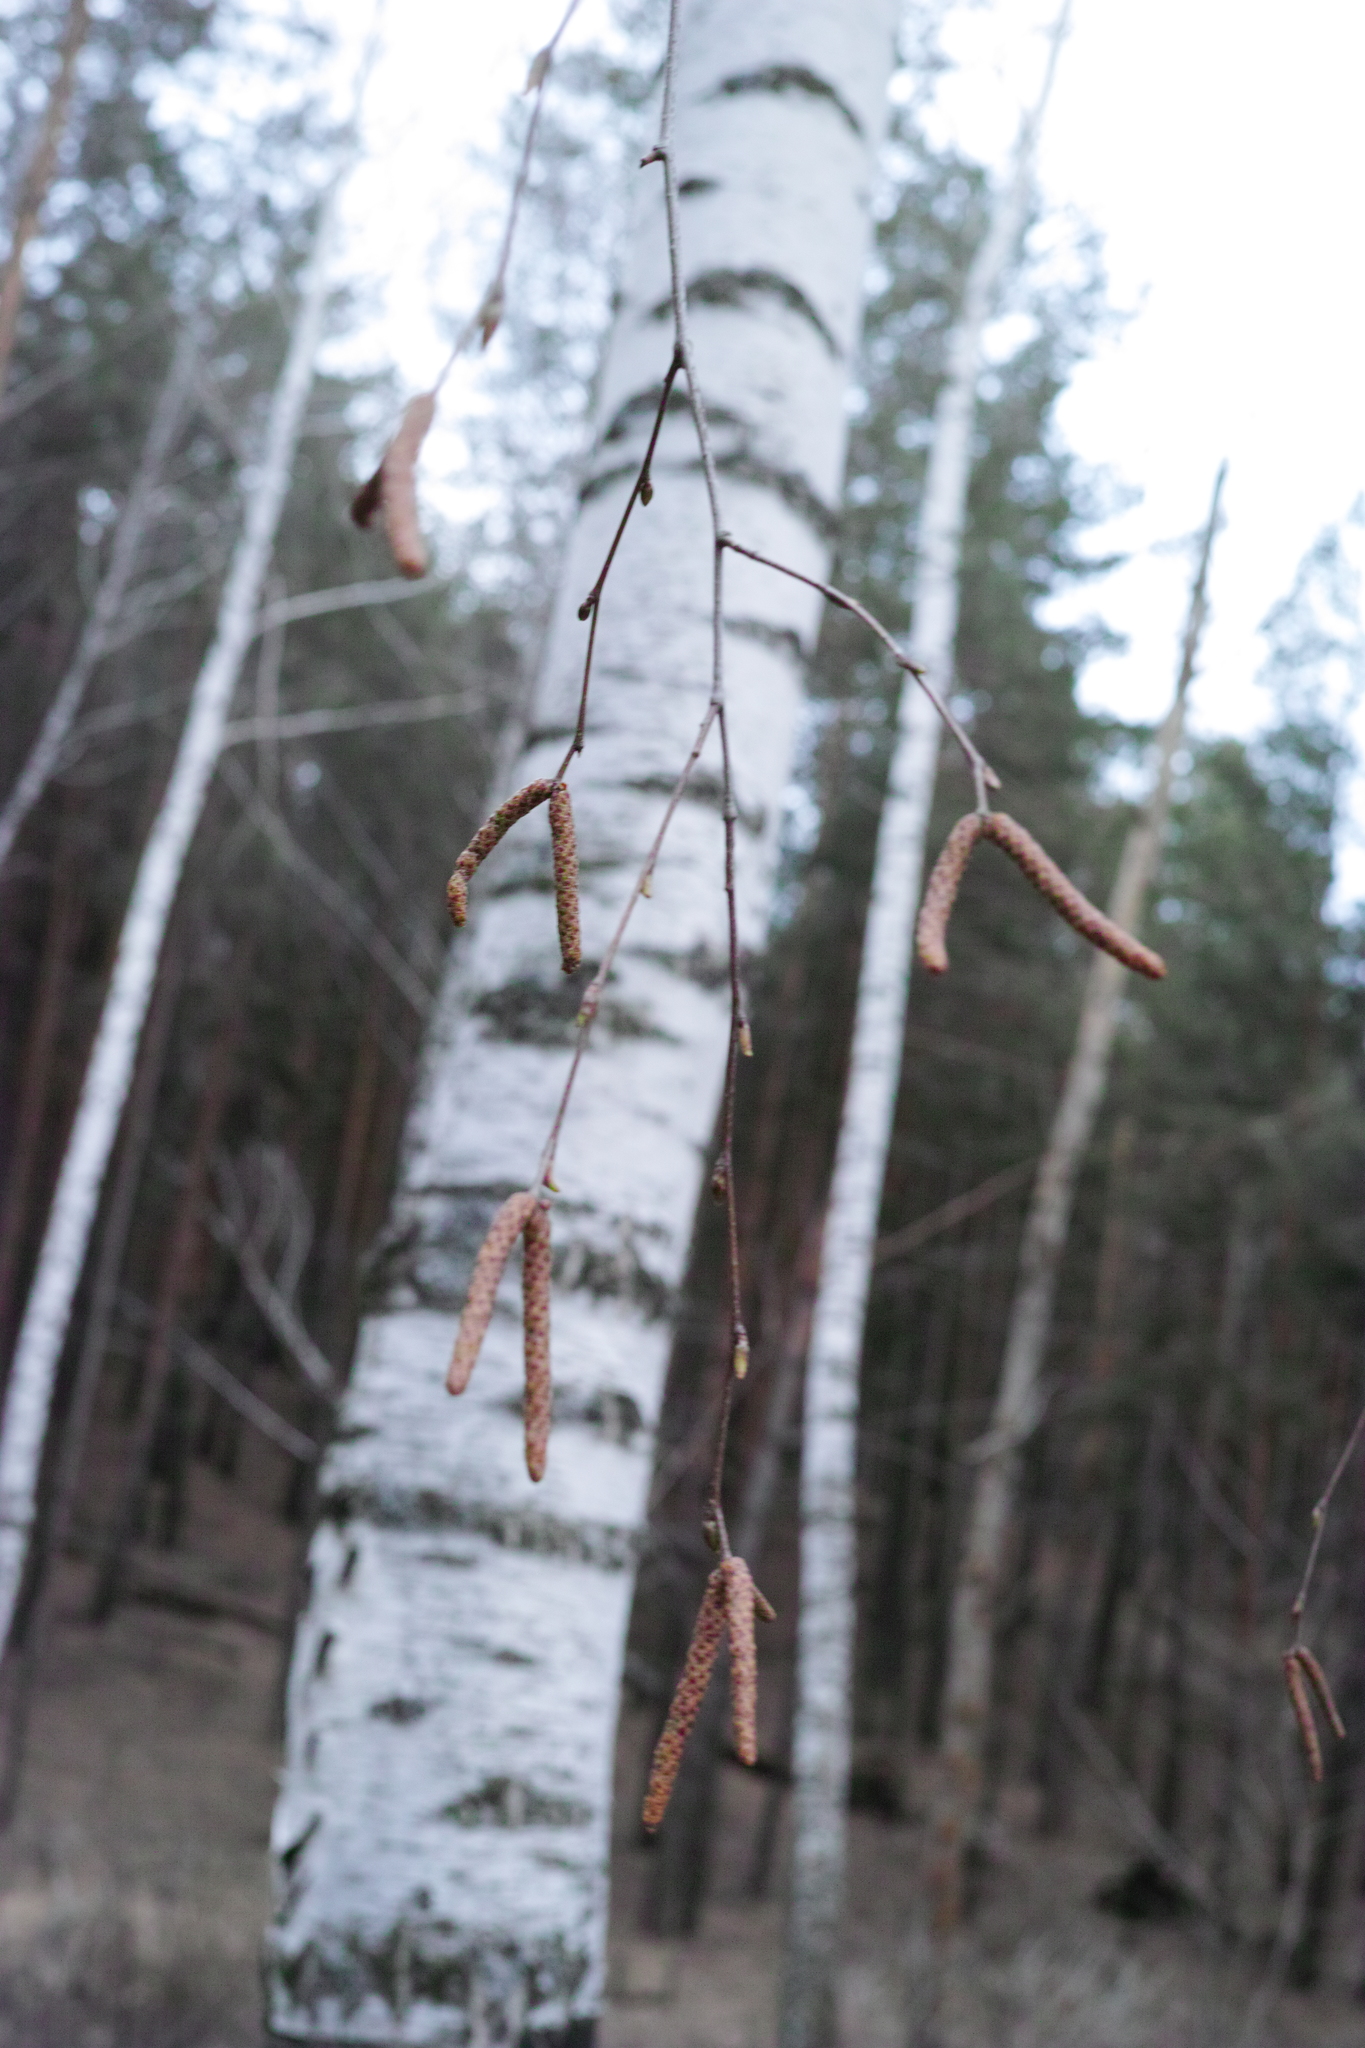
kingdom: Plantae
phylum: Tracheophyta
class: Magnoliopsida
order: Fagales
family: Betulaceae
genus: Betula
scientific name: Betula pendula
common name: Silver birch
